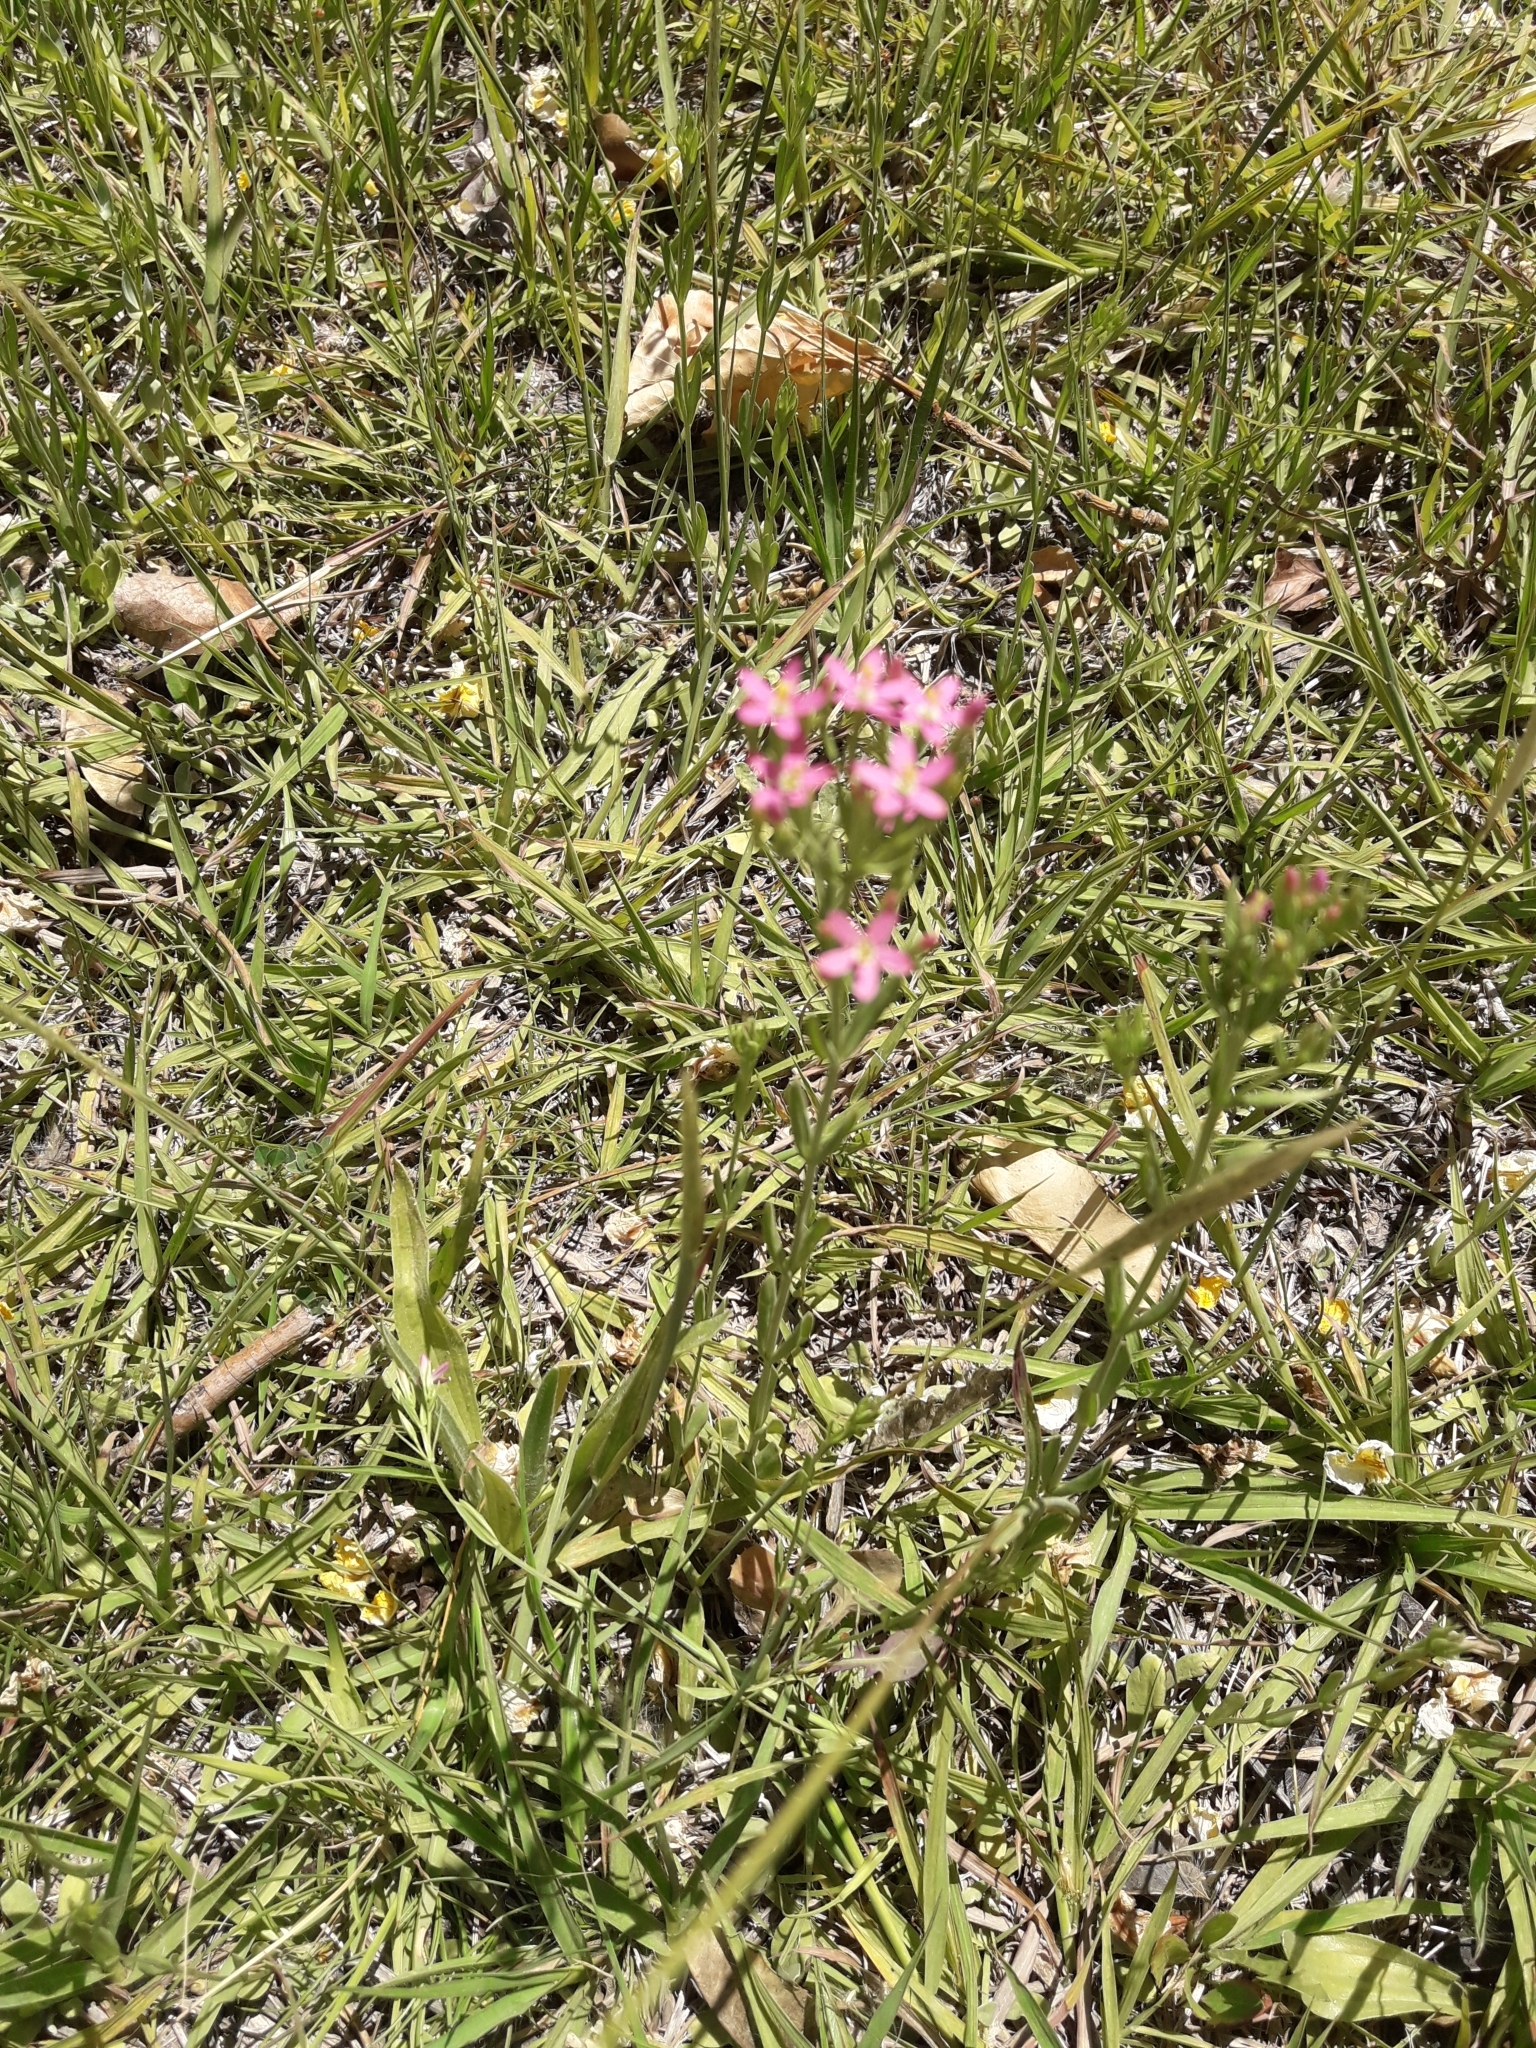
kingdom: Plantae
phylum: Tracheophyta
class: Magnoliopsida
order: Gentianales
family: Gentianaceae
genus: Centaurium
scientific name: Centaurium pulchellum
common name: Lesser centaury
